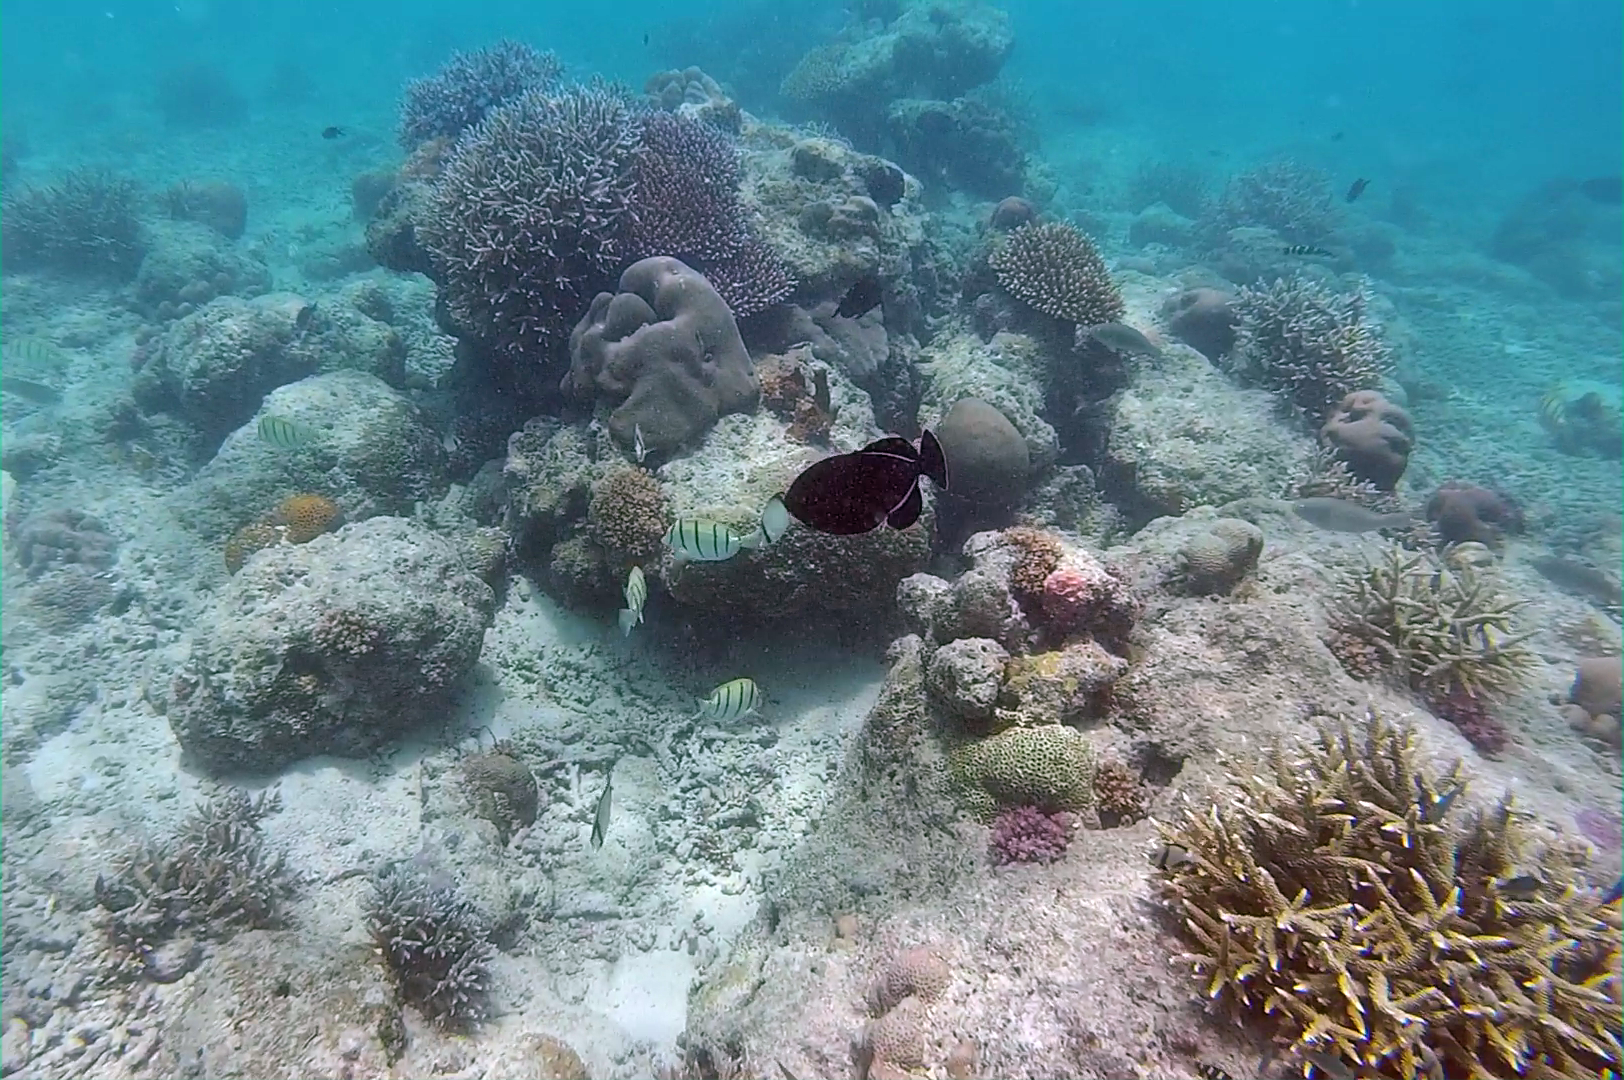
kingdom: Animalia
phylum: Chordata
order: Tetraodontiformes
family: Balistidae
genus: Melichthys
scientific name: Melichthys indicus
